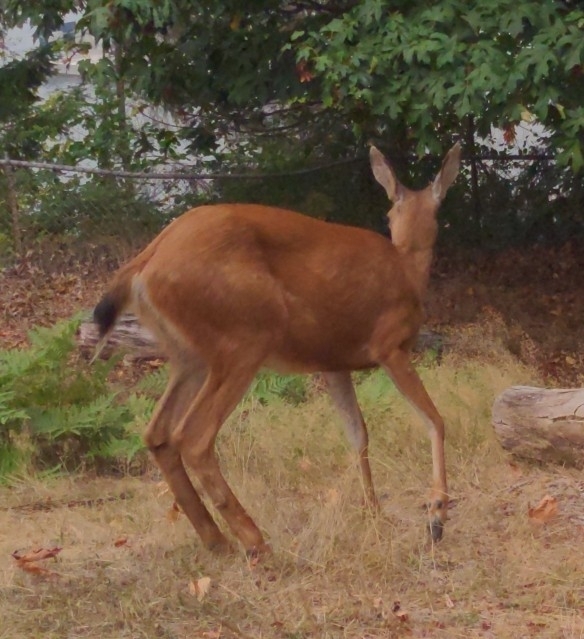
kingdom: Animalia
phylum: Chordata
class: Mammalia
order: Artiodactyla
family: Cervidae
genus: Odocoileus
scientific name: Odocoileus hemionus
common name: Mule deer
